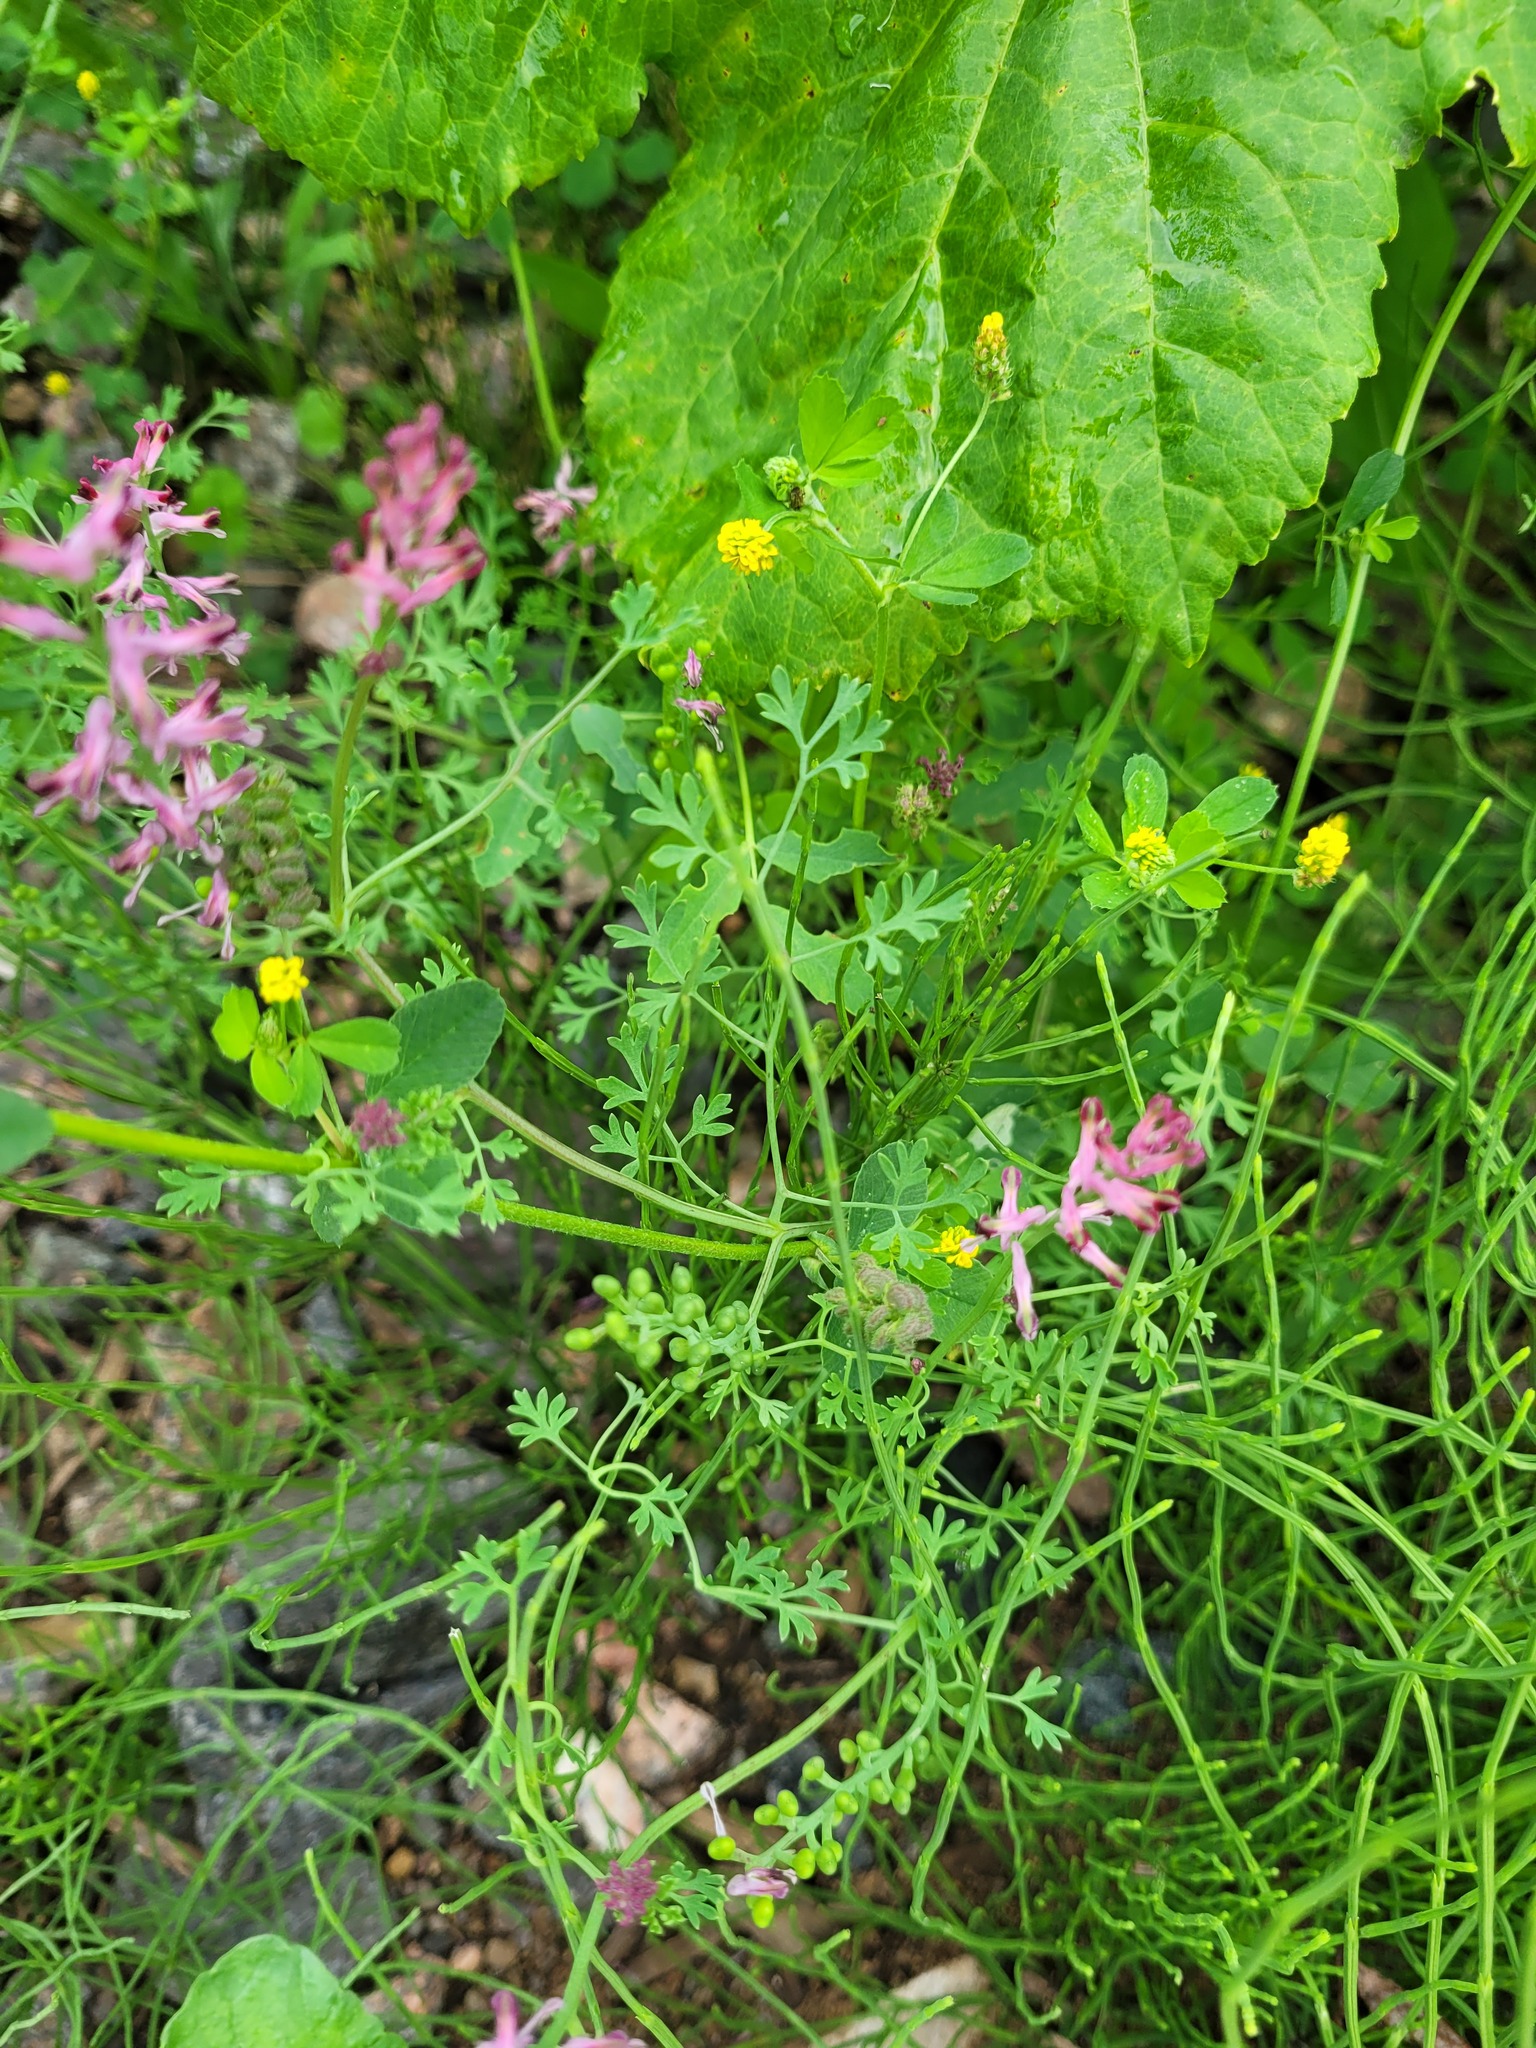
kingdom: Plantae
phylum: Tracheophyta
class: Magnoliopsida
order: Ranunculales
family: Papaveraceae
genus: Fumaria
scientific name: Fumaria officinalis
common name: Common fumitory
